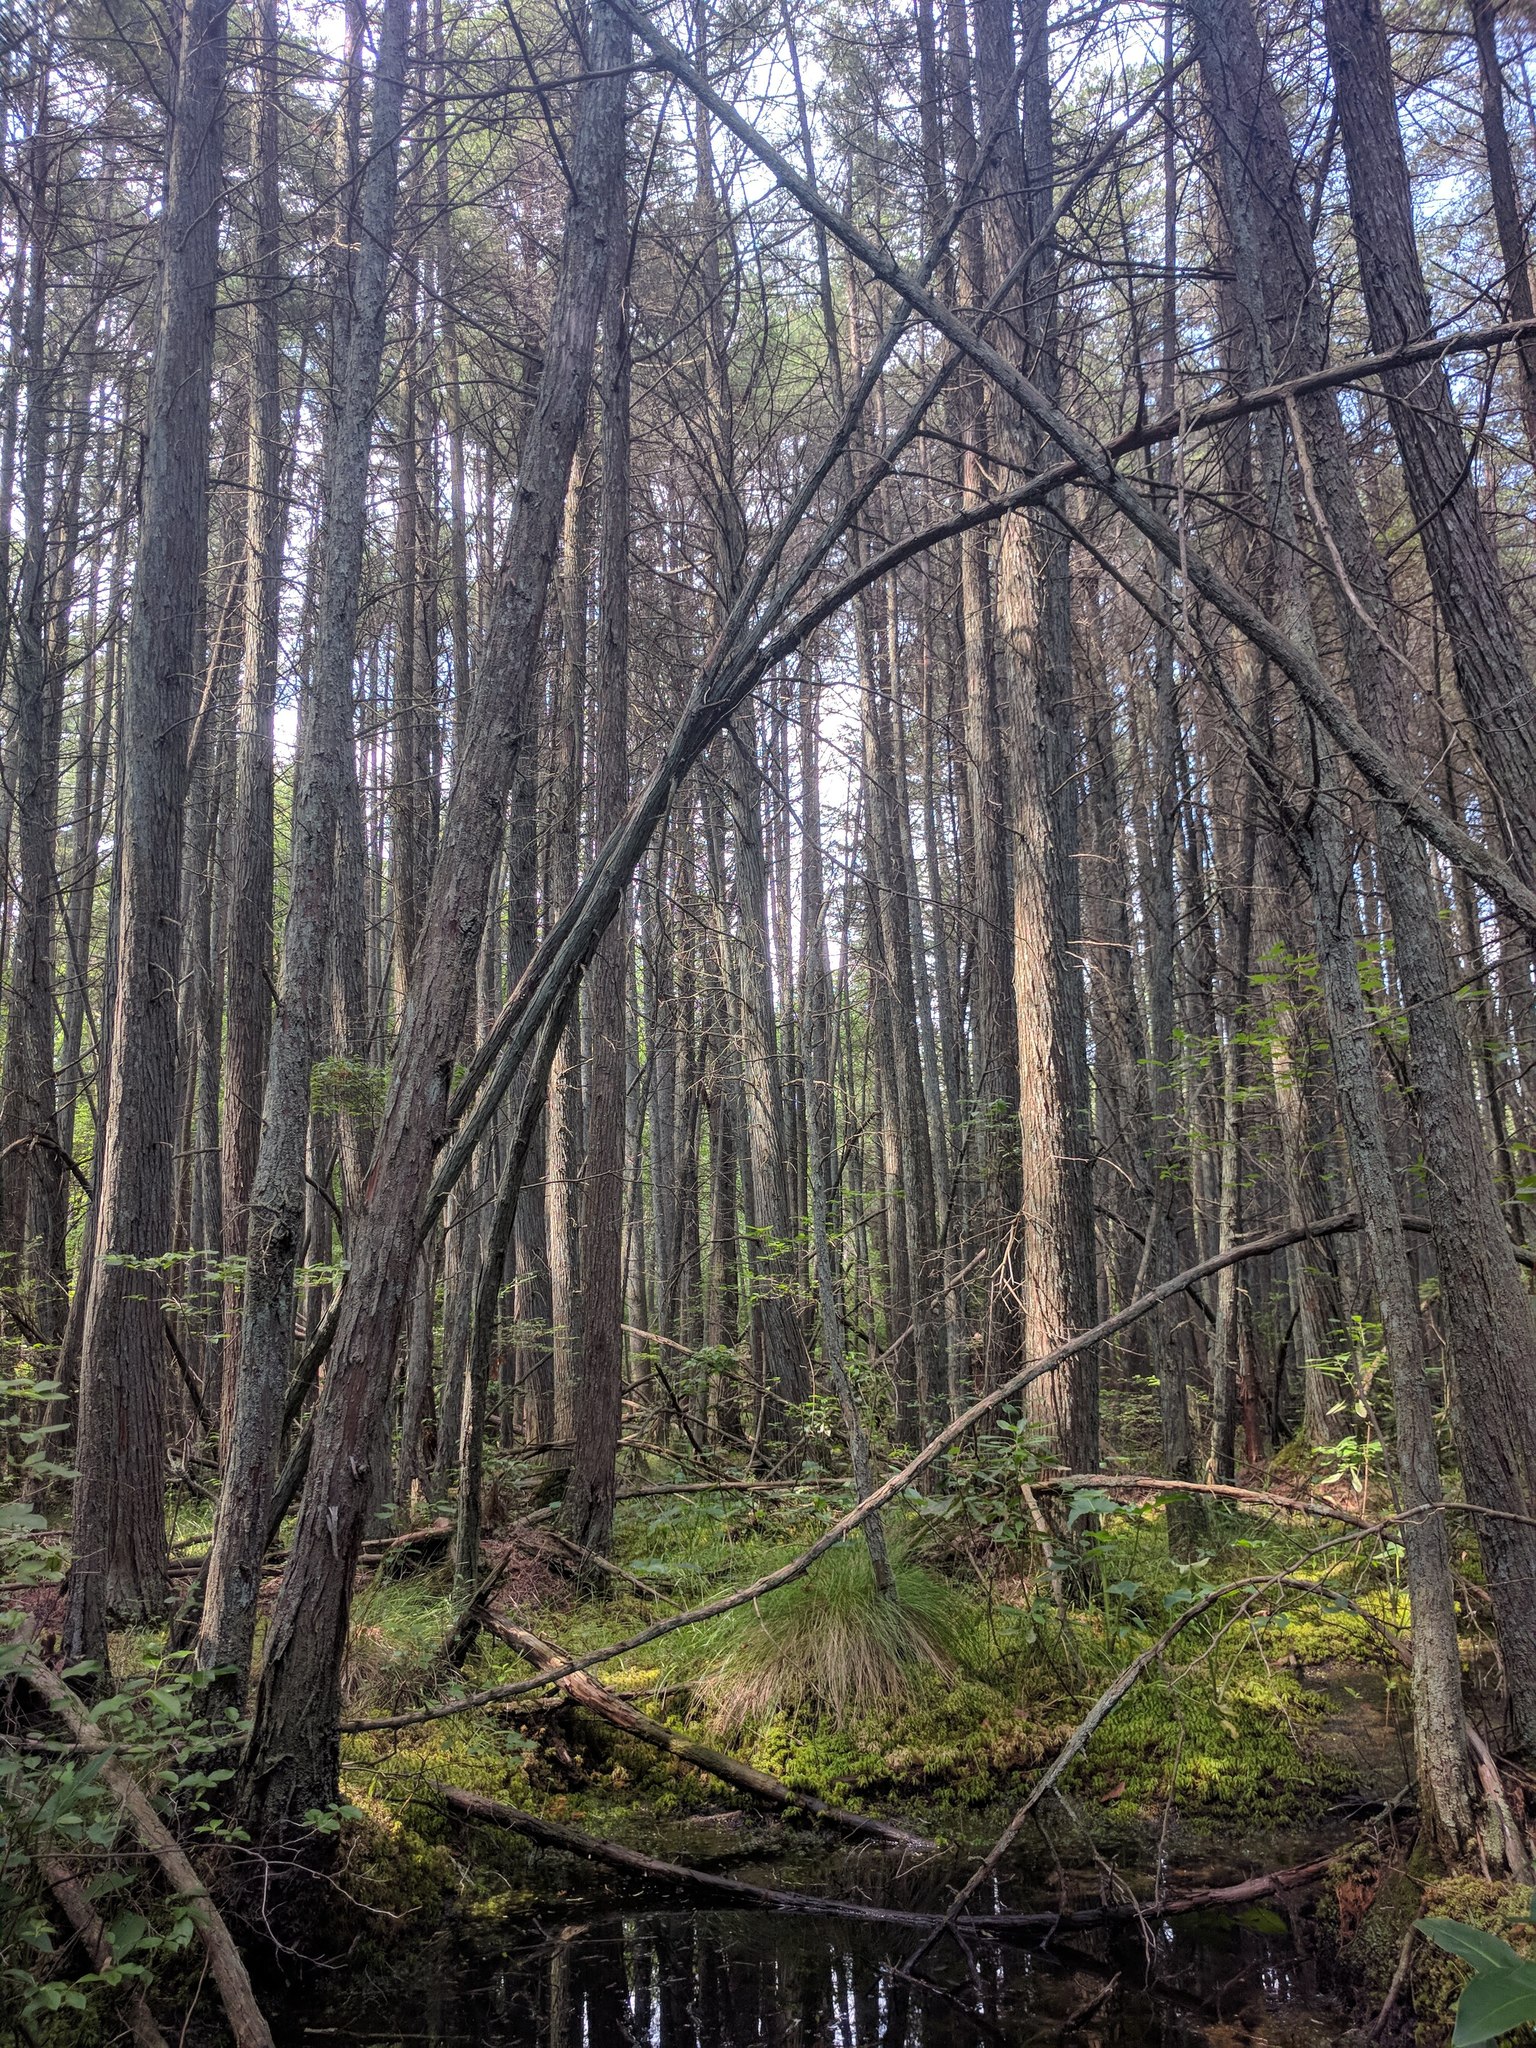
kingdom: Plantae
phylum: Tracheophyta
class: Pinopsida
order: Pinales
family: Cupressaceae
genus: Chamaecyparis
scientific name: Chamaecyparis thyoides
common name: Atlantic white cedar
